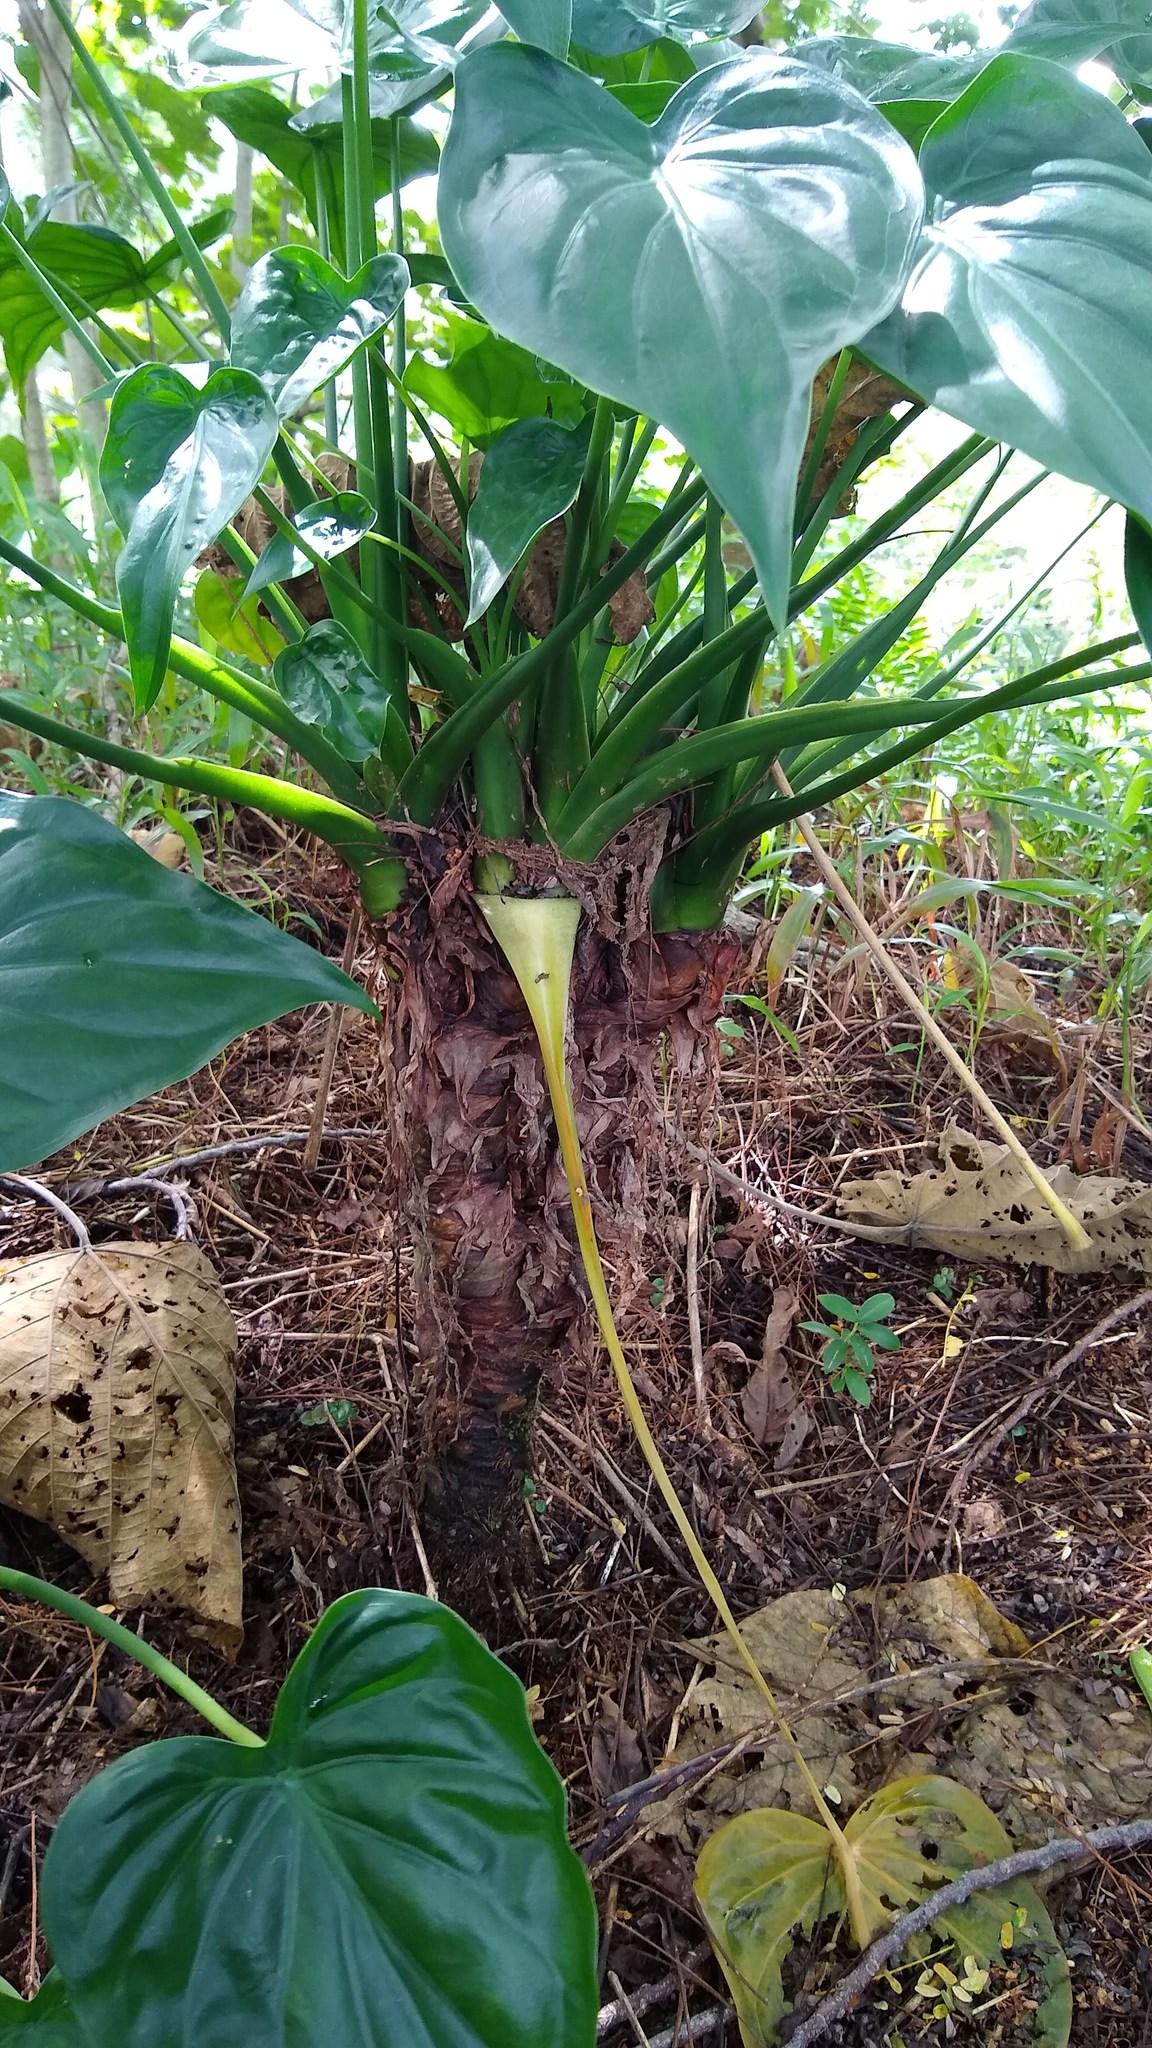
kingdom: Plantae
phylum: Tracheophyta
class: Liliopsida
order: Alismatales
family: Araceae
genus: Alocasia
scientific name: Alocasia cucullata
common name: Buddha's hand
